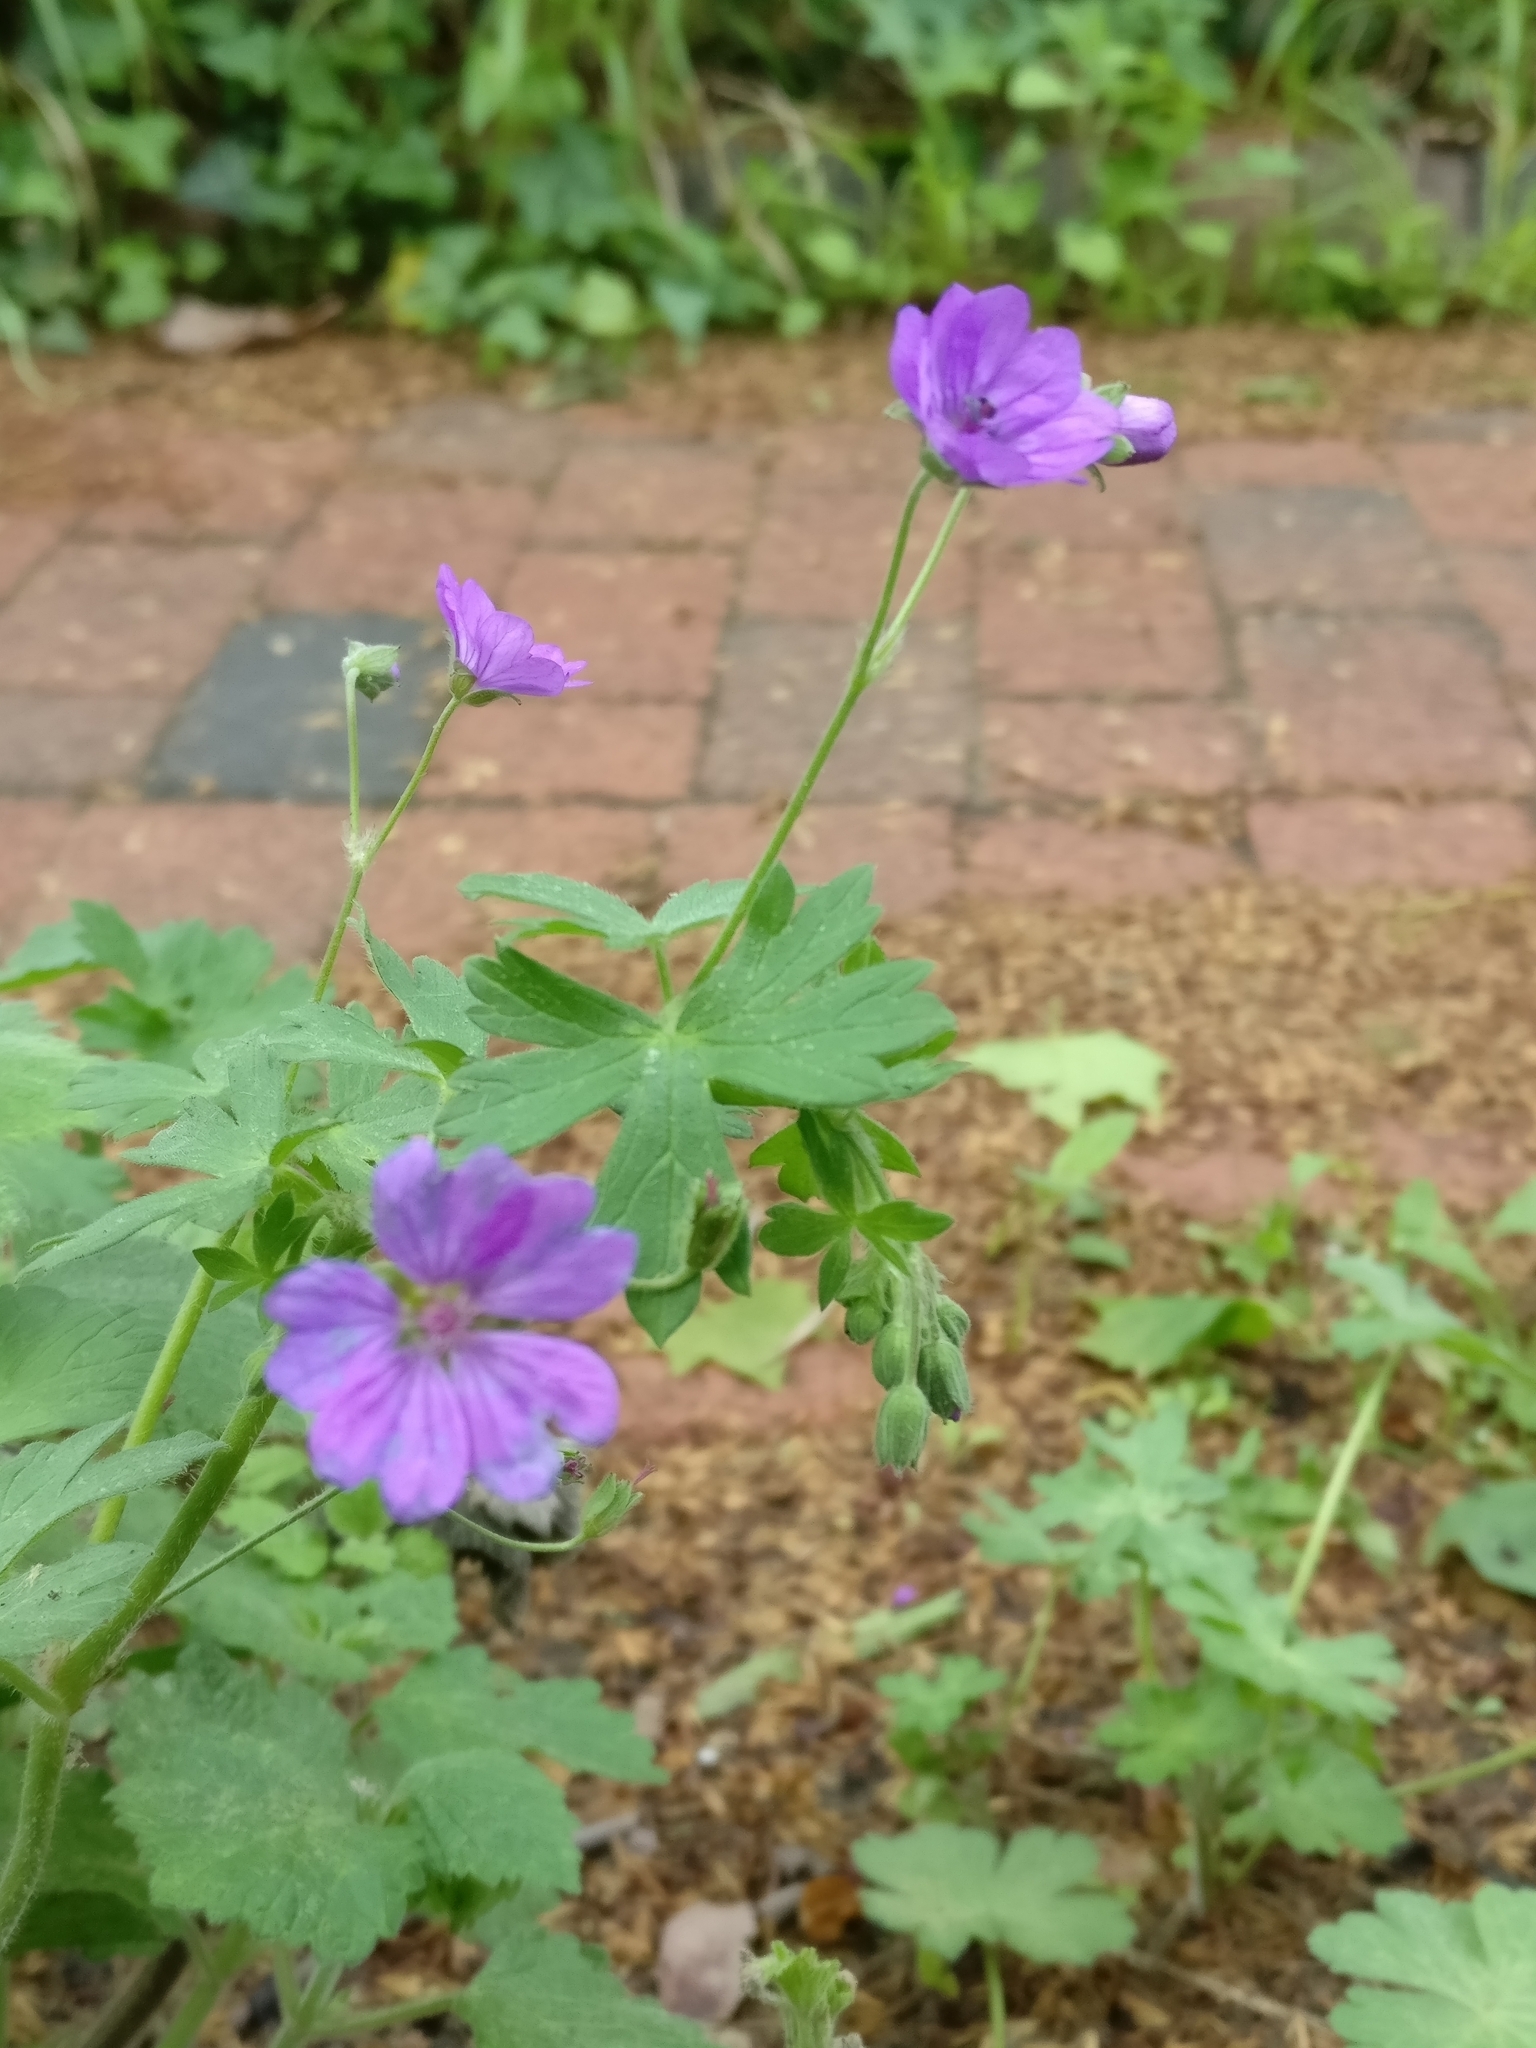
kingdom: Plantae
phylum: Tracheophyta
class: Magnoliopsida
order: Geraniales
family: Geraniaceae
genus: Geranium
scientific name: Geranium pyrenaicum
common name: Hedgerow crane's-bill
